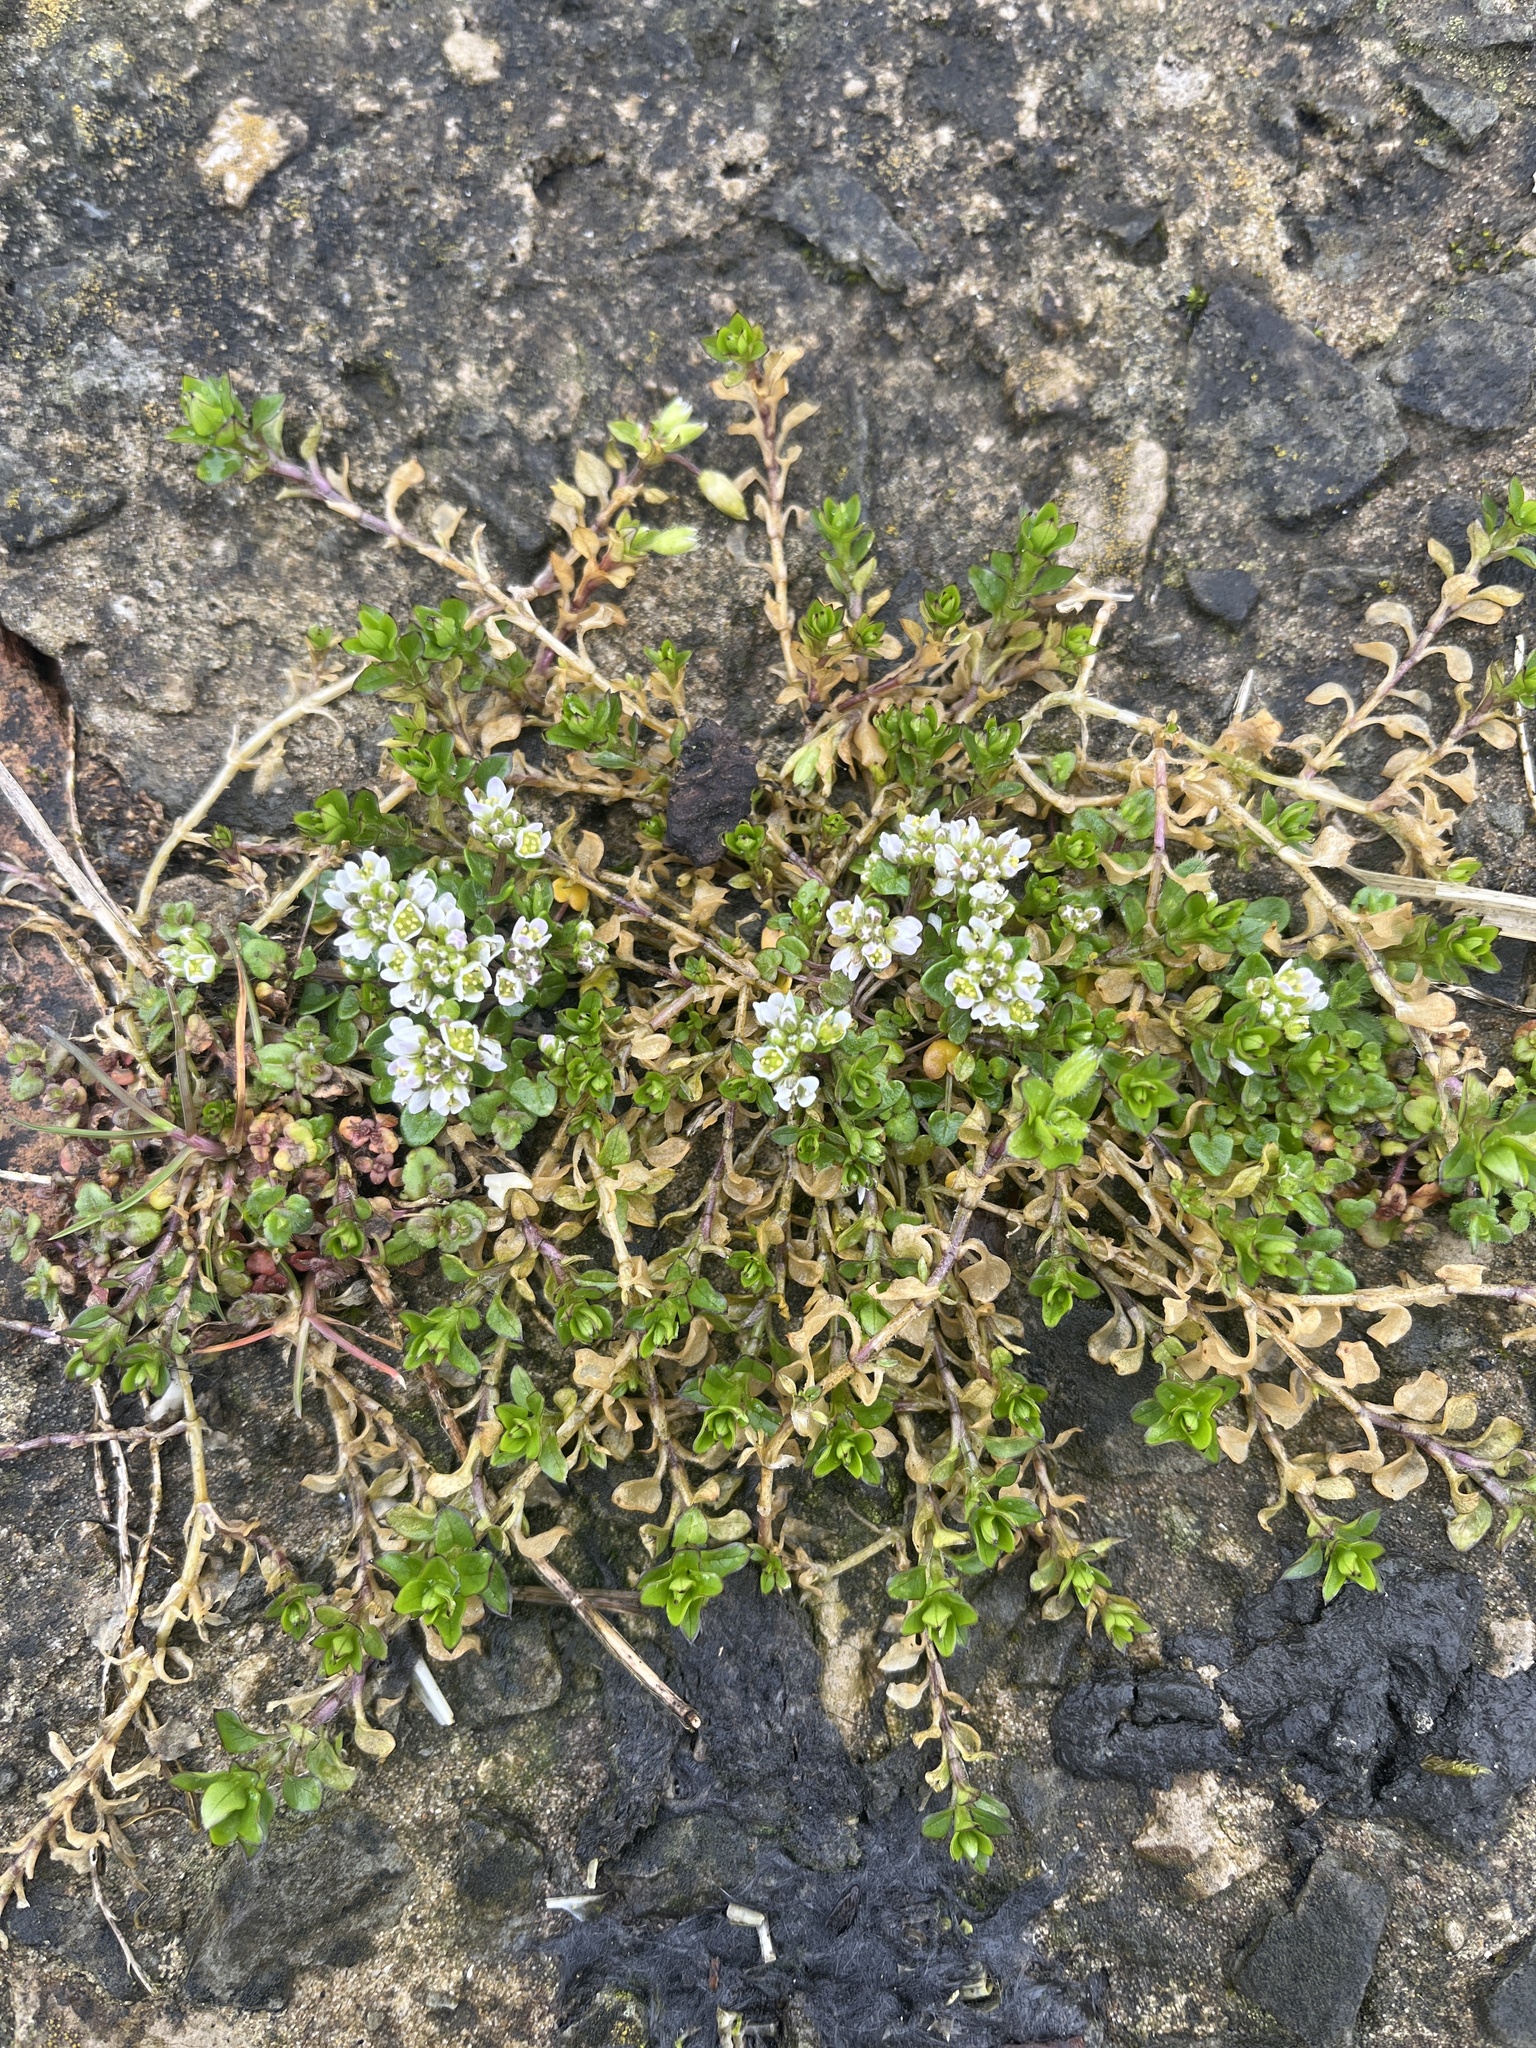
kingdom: Plantae
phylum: Tracheophyta
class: Magnoliopsida
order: Brassicales
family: Brassicaceae
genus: Cochlearia
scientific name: Cochlearia danica
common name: Early scurvygrass
